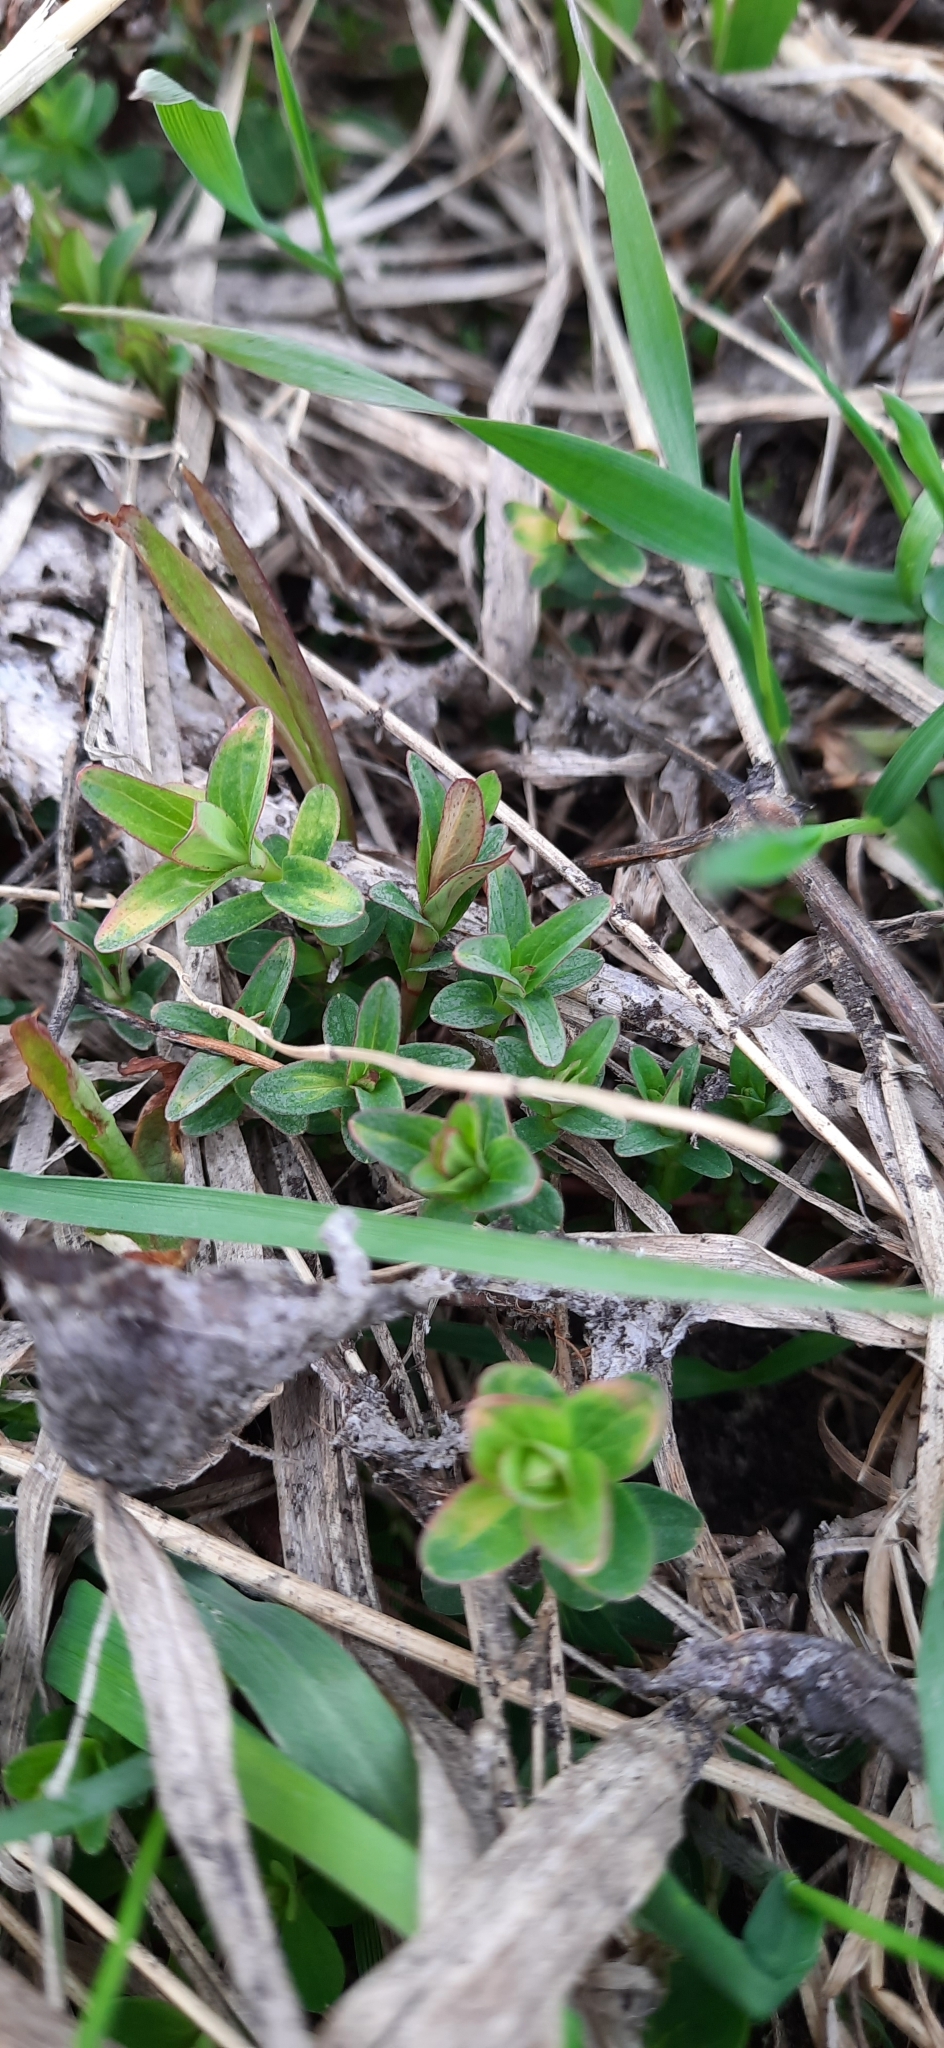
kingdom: Plantae
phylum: Tracheophyta
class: Magnoliopsida
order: Malpighiales
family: Hypericaceae
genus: Hypericum
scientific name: Hypericum perforatum
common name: Common st. johnswort
